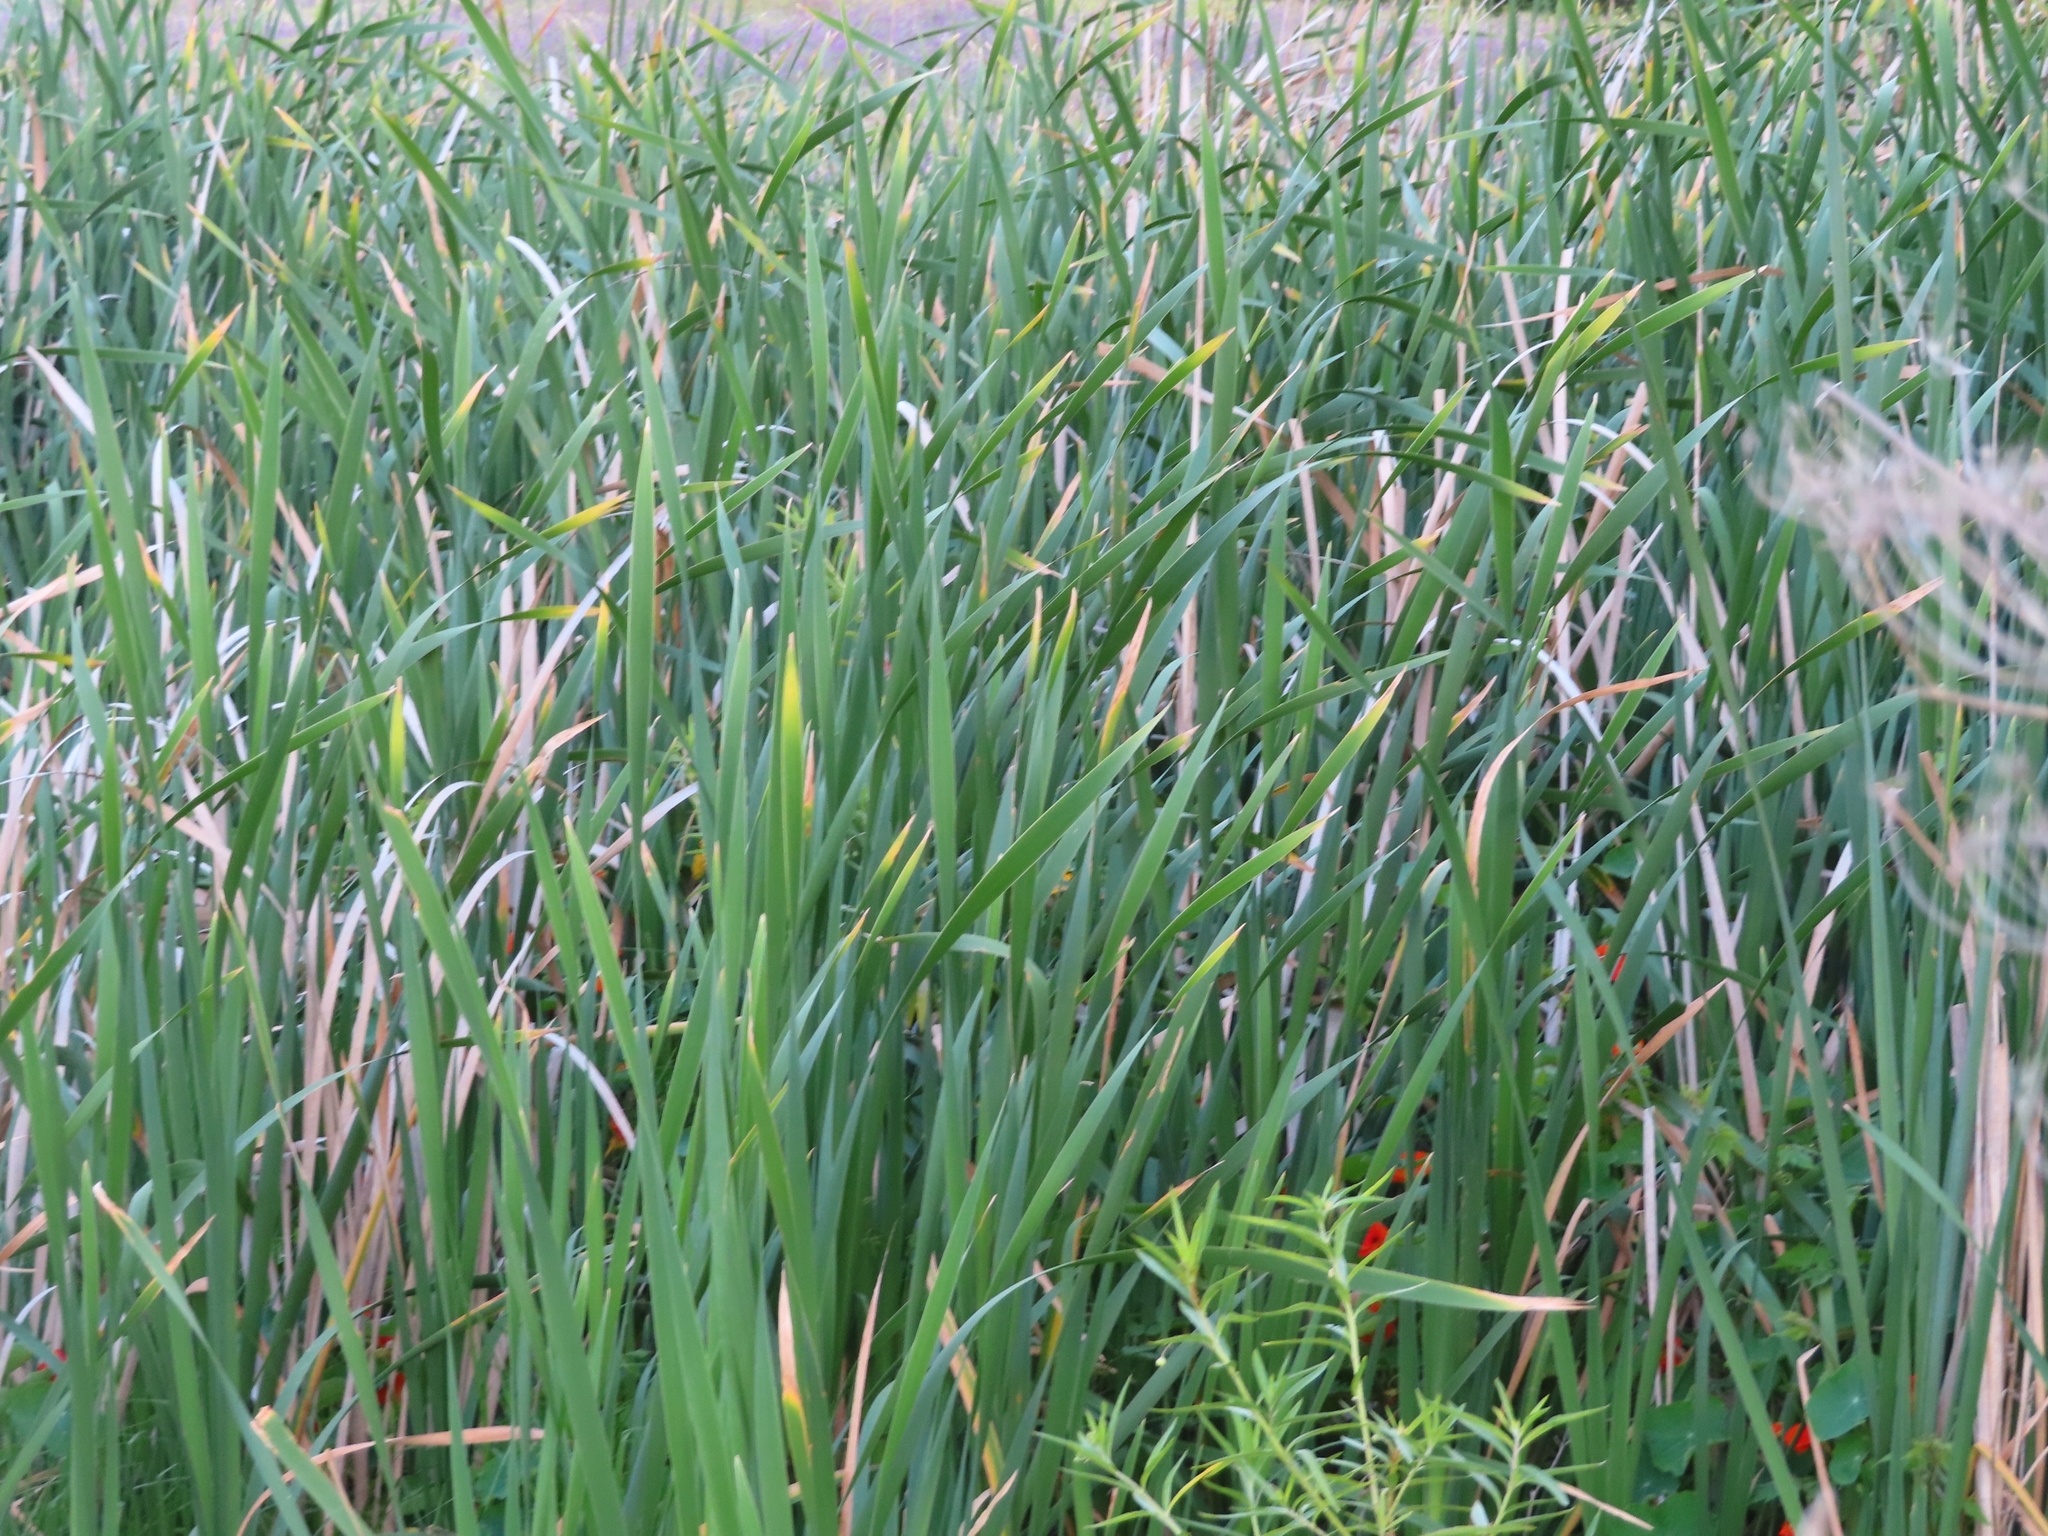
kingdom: Plantae
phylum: Tracheophyta
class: Liliopsida
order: Poales
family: Typhaceae
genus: Typha
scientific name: Typha capensis
